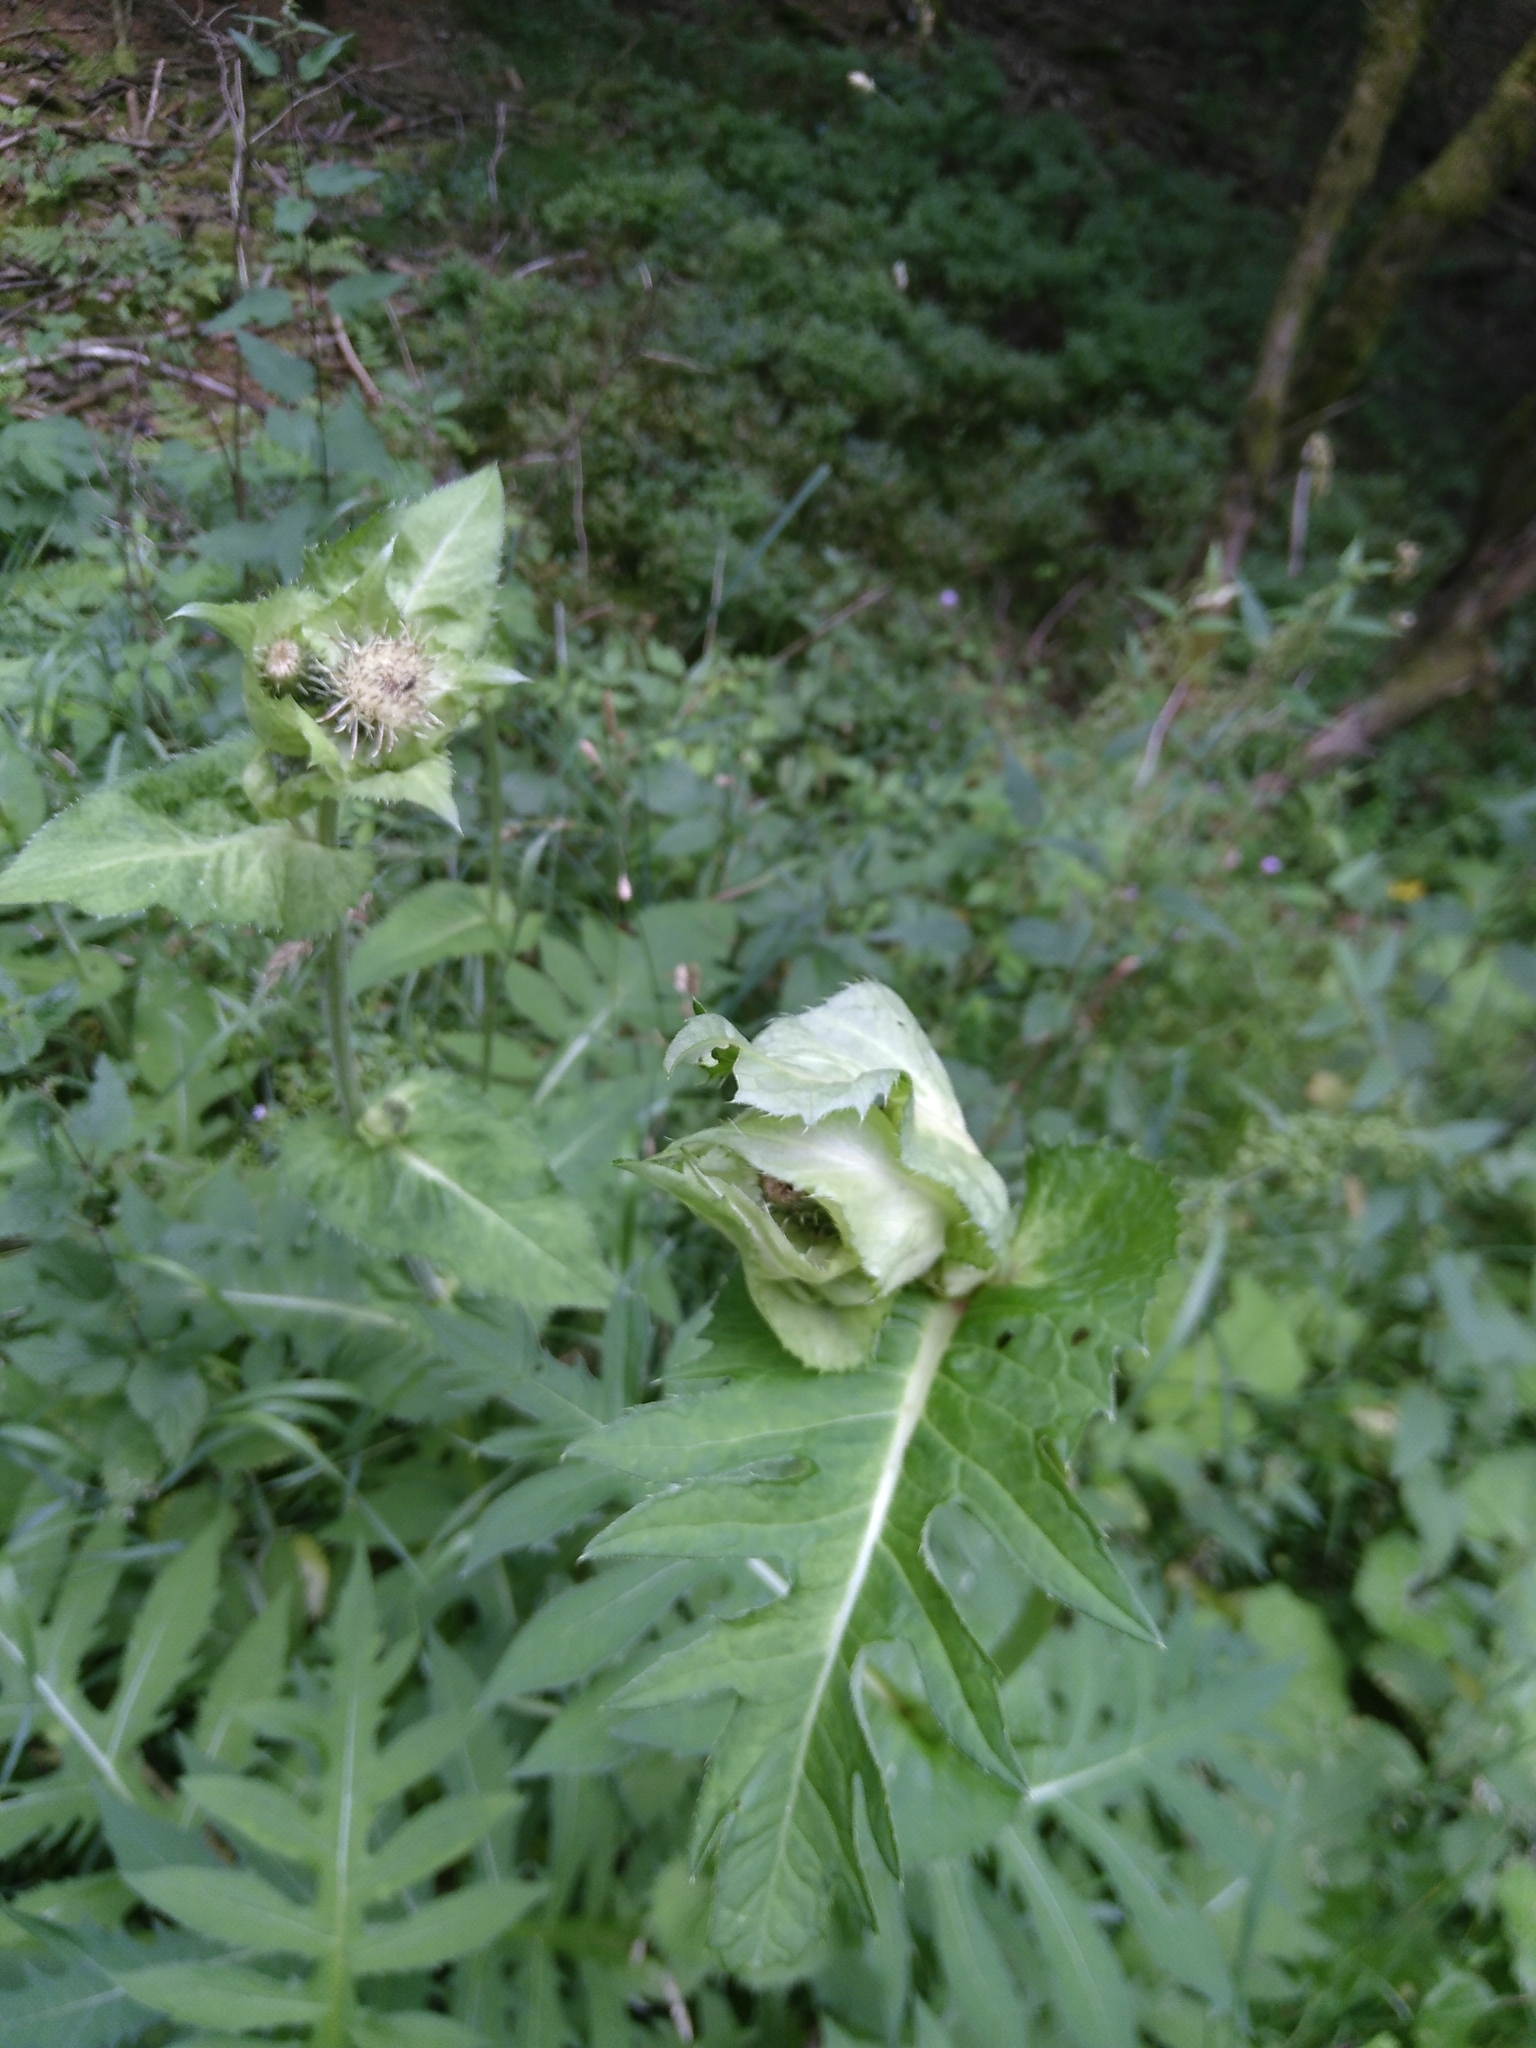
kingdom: Plantae
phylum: Tracheophyta
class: Magnoliopsida
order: Asterales
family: Asteraceae
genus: Cirsium
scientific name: Cirsium oleraceum
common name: Cabbage thistle
